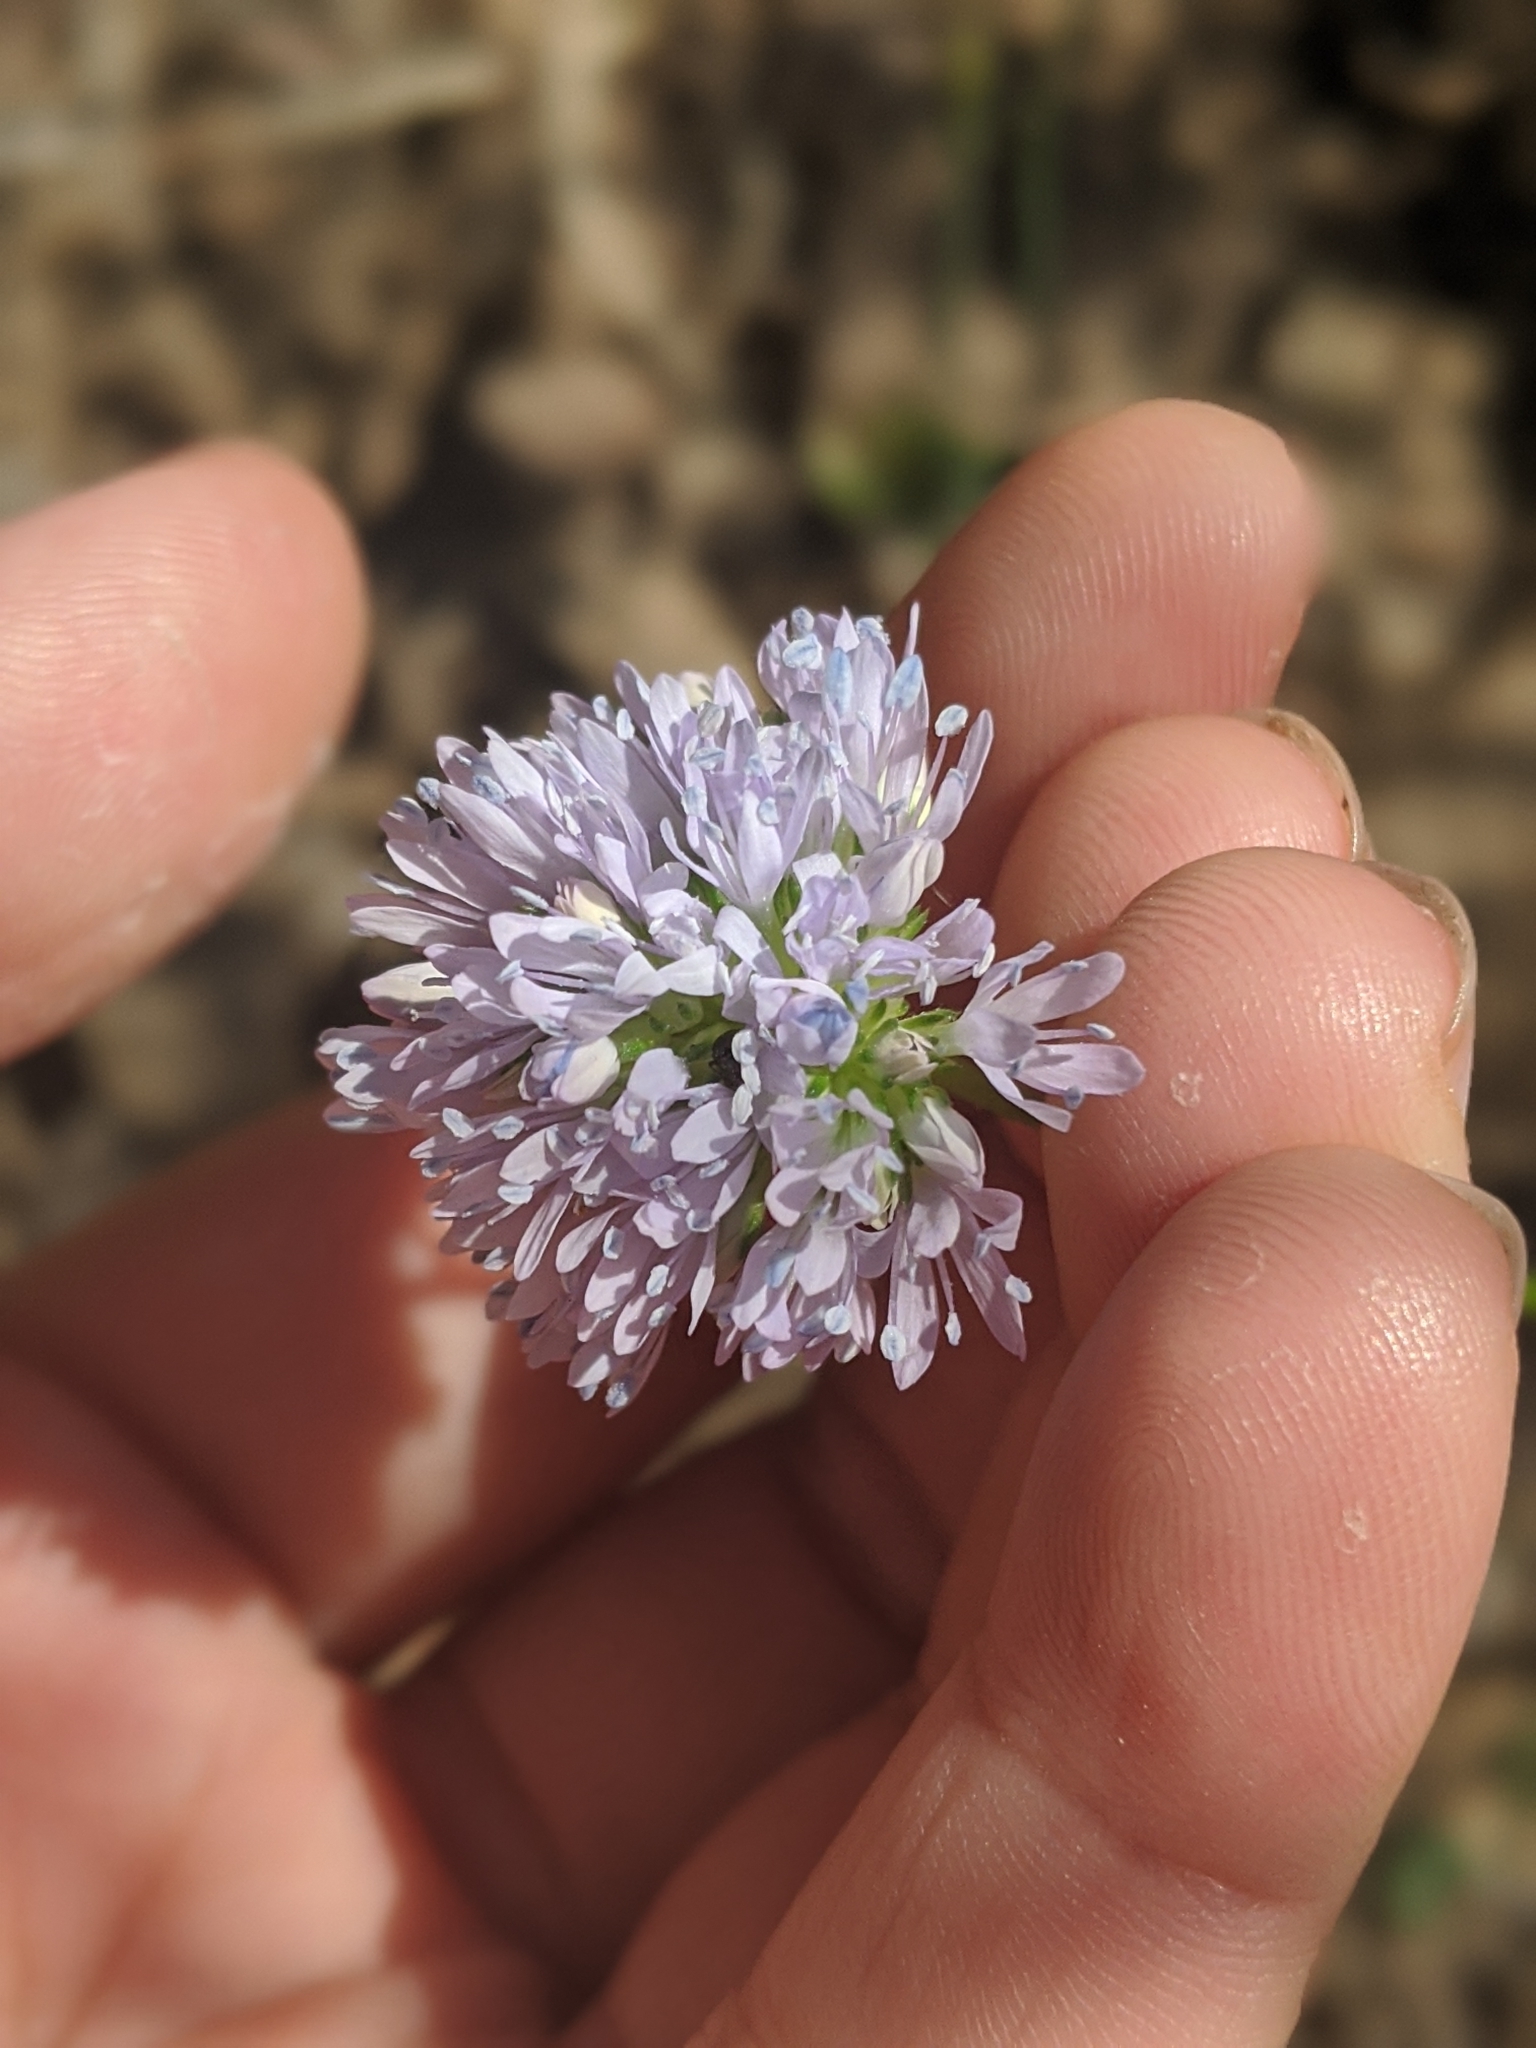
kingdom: Plantae
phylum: Tracheophyta
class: Magnoliopsida
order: Ericales
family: Polemoniaceae
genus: Gilia
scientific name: Gilia capitata
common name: Bluehead gilia
